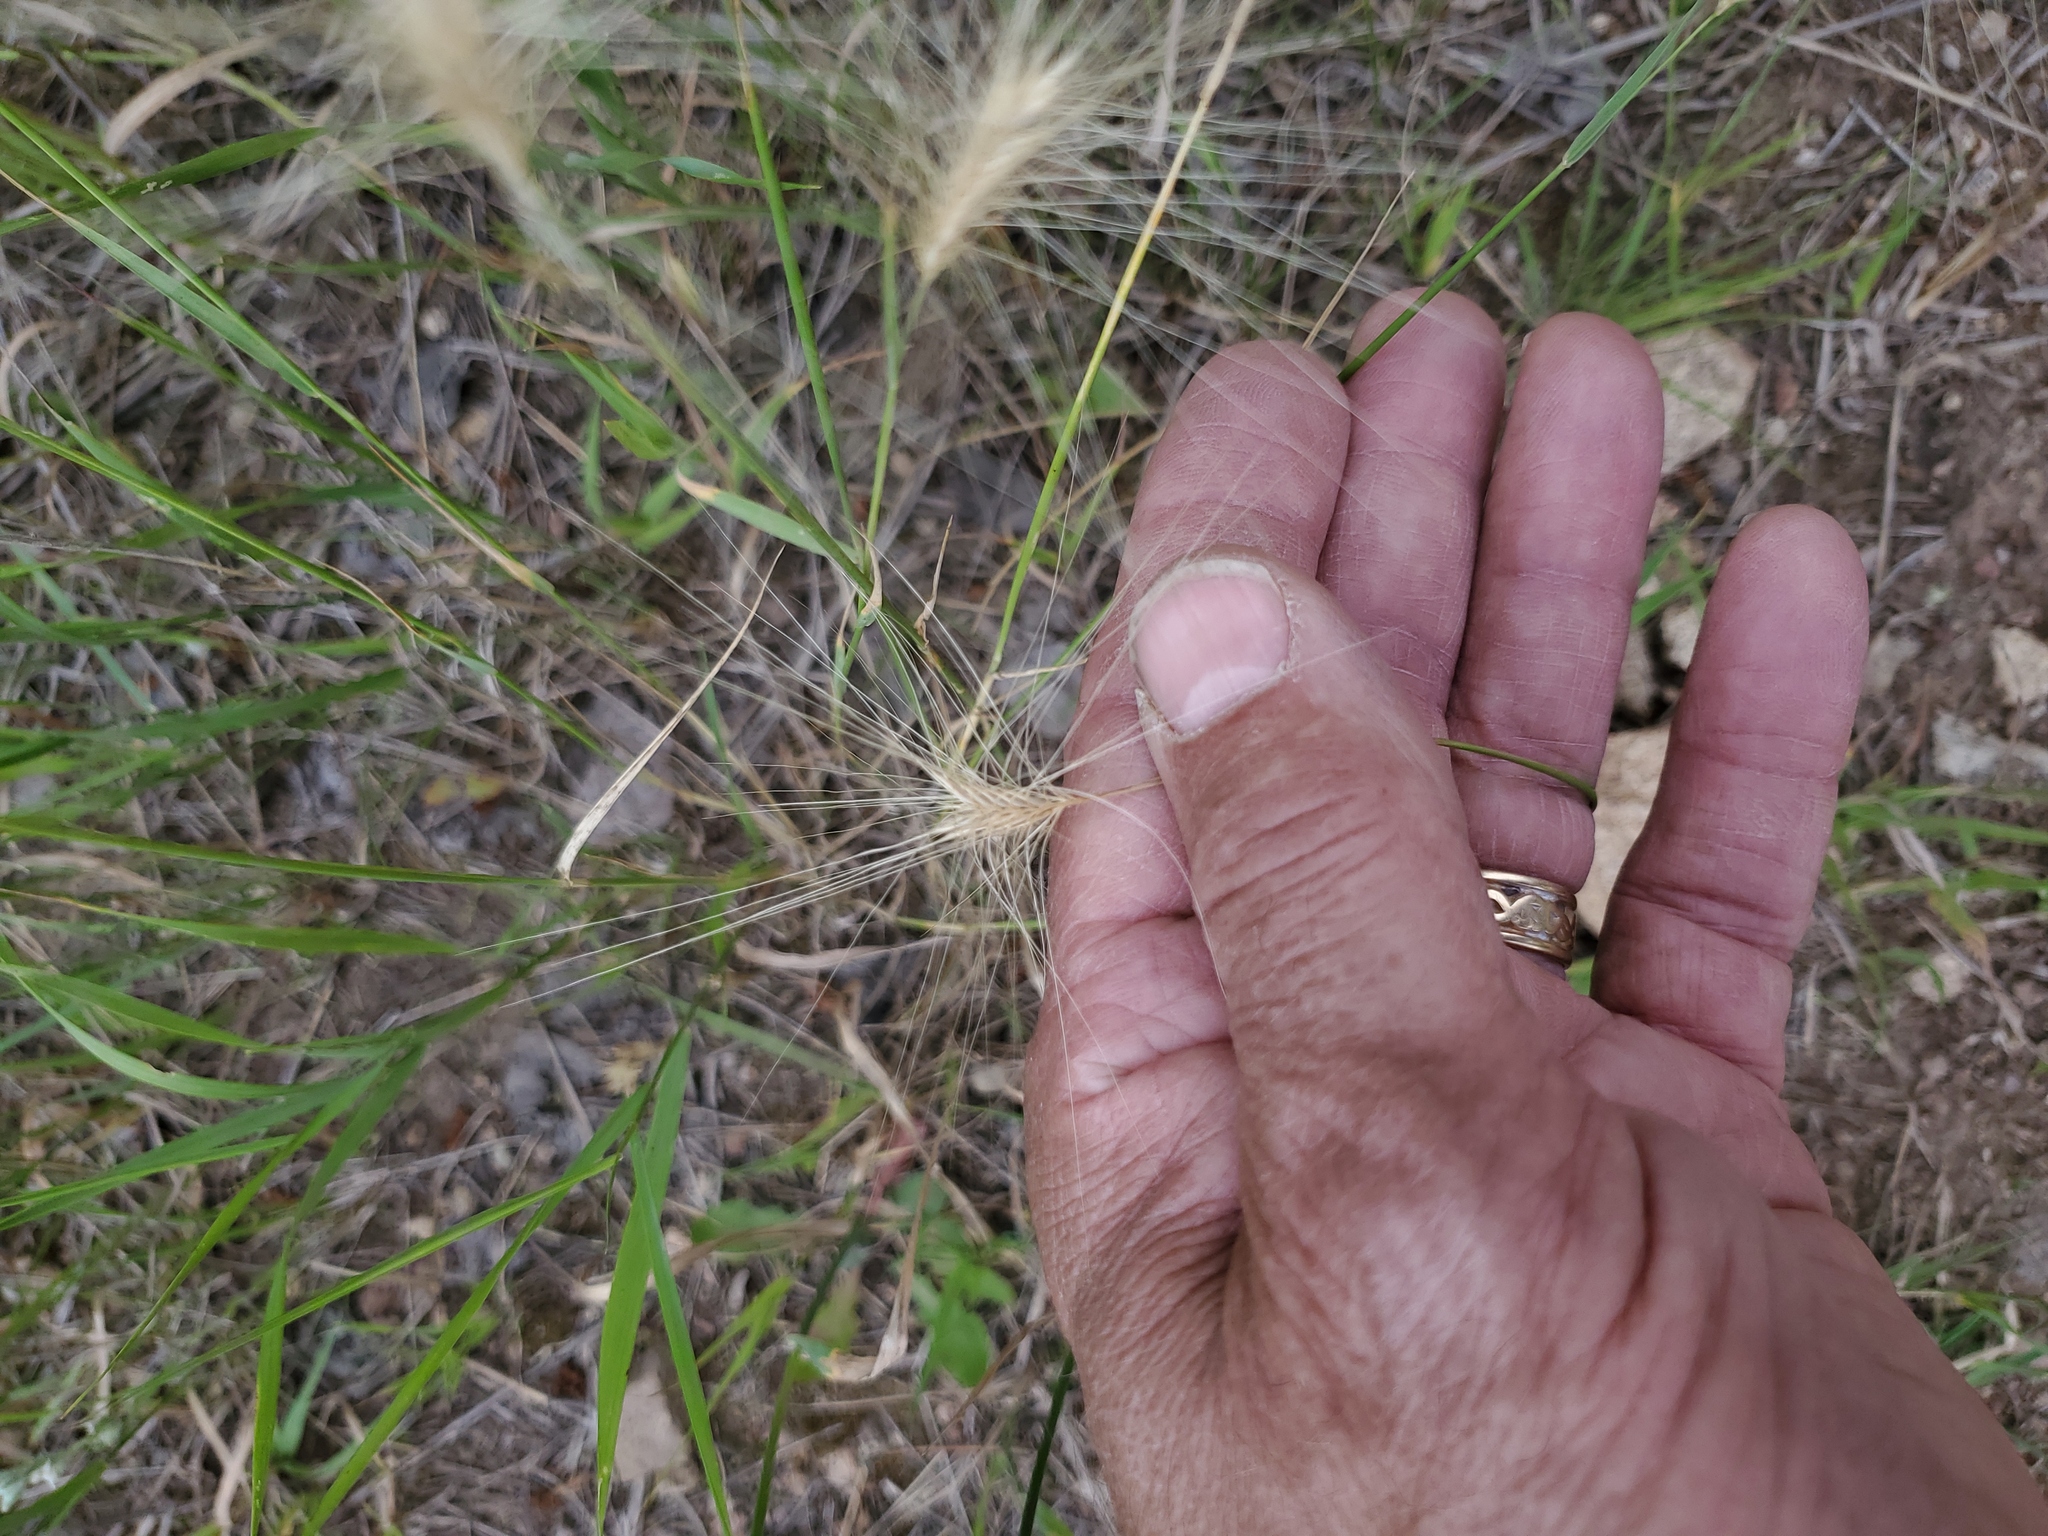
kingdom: Plantae
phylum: Tracheophyta
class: Liliopsida
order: Poales
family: Poaceae
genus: Hordeum
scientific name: Hordeum jubatum
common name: Foxtail barley
